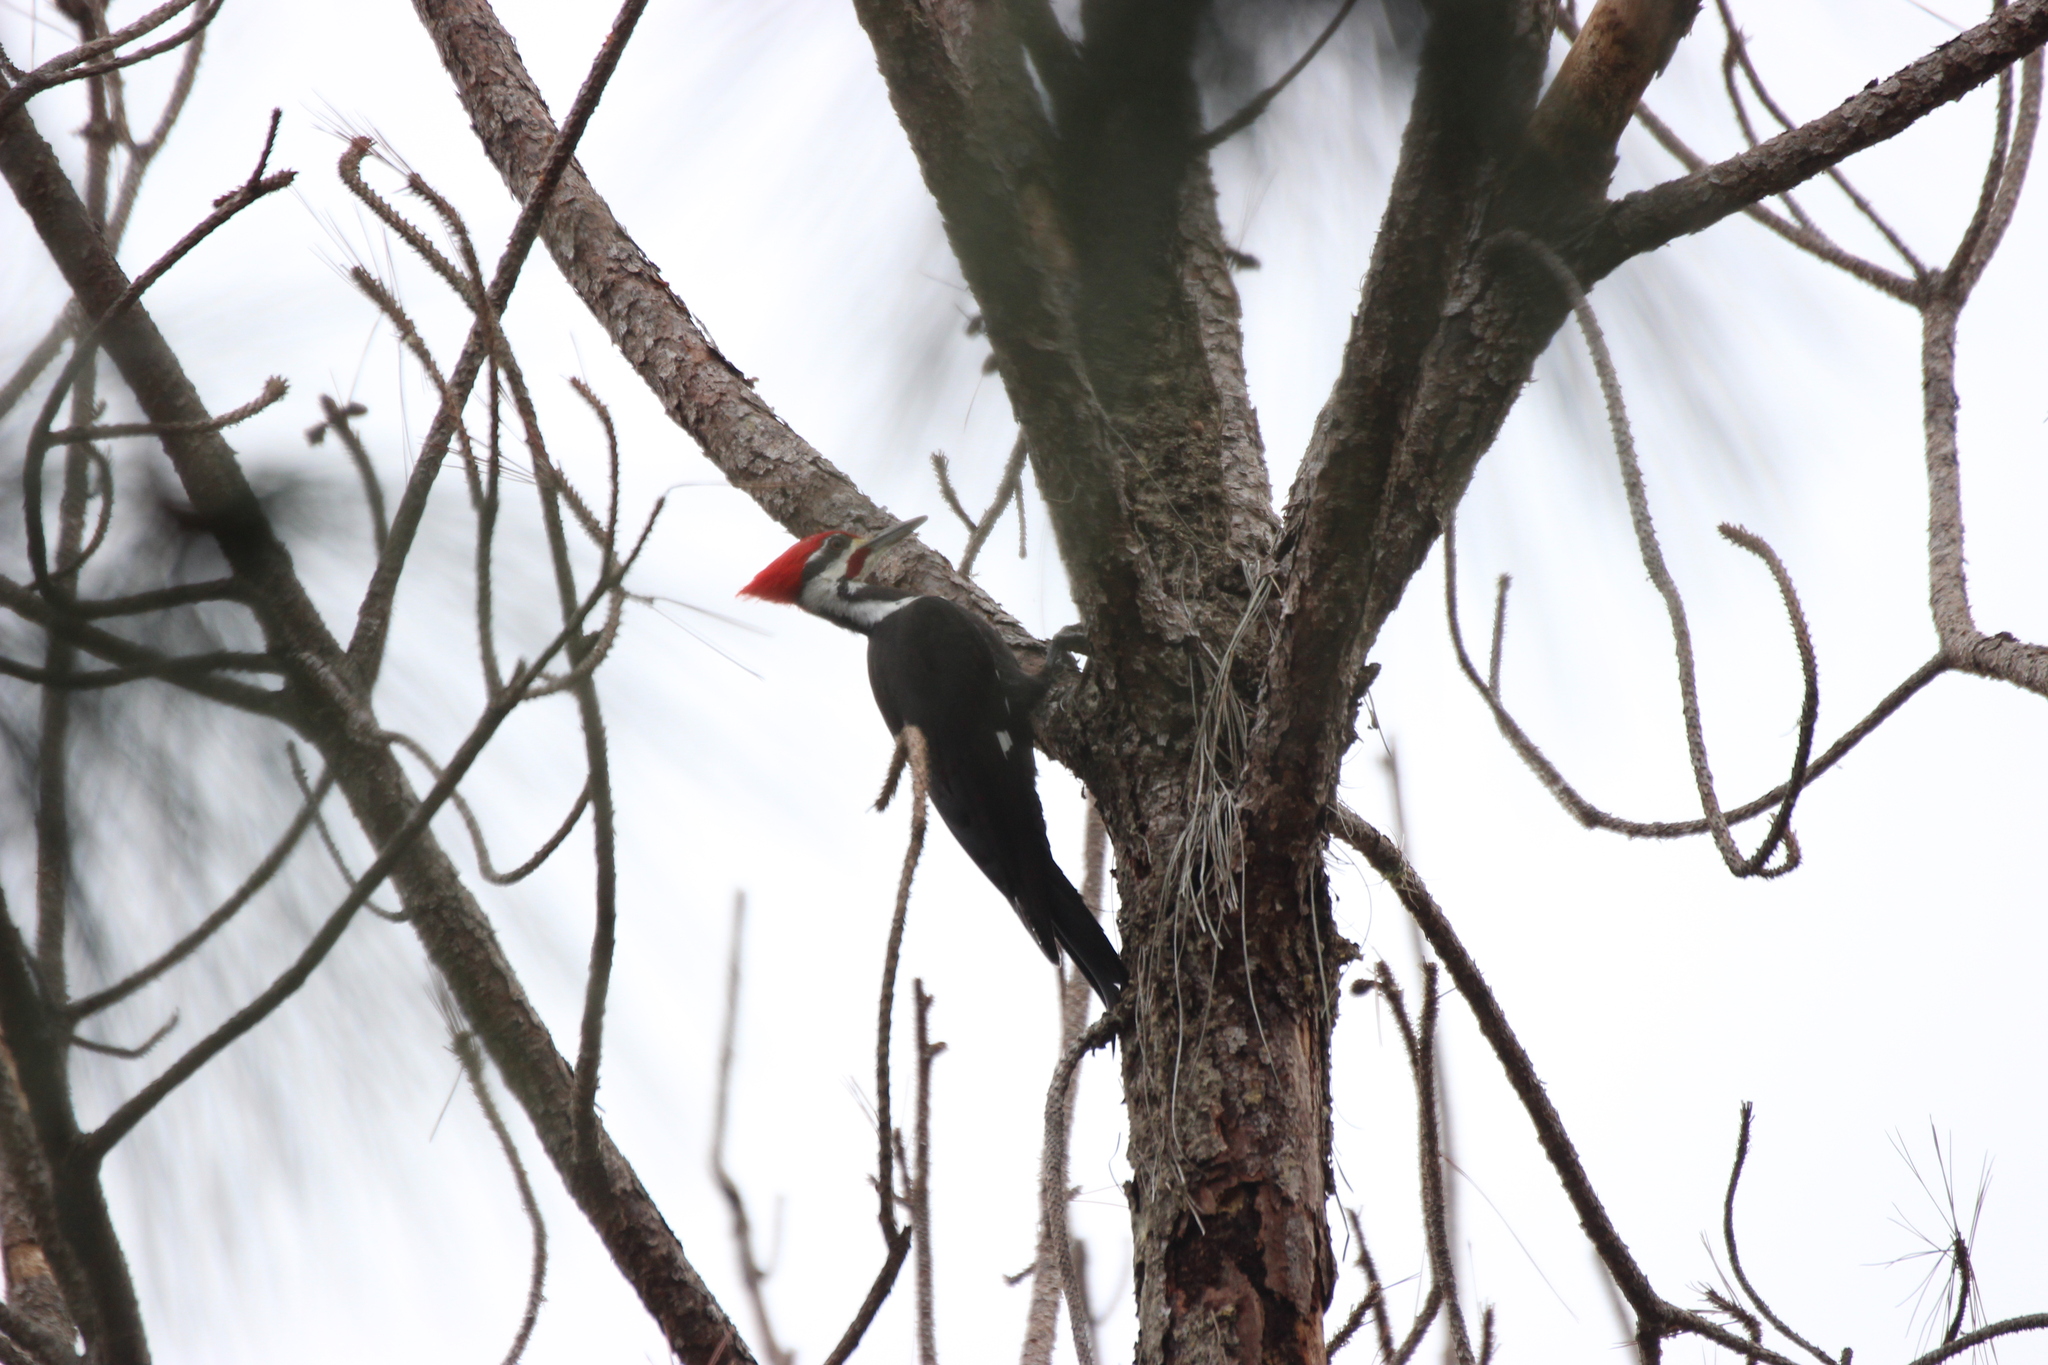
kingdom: Animalia
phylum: Chordata
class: Aves
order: Piciformes
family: Picidae
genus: Dryocopus
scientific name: Dryocopus pileatus
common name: Pileated woodpecker
